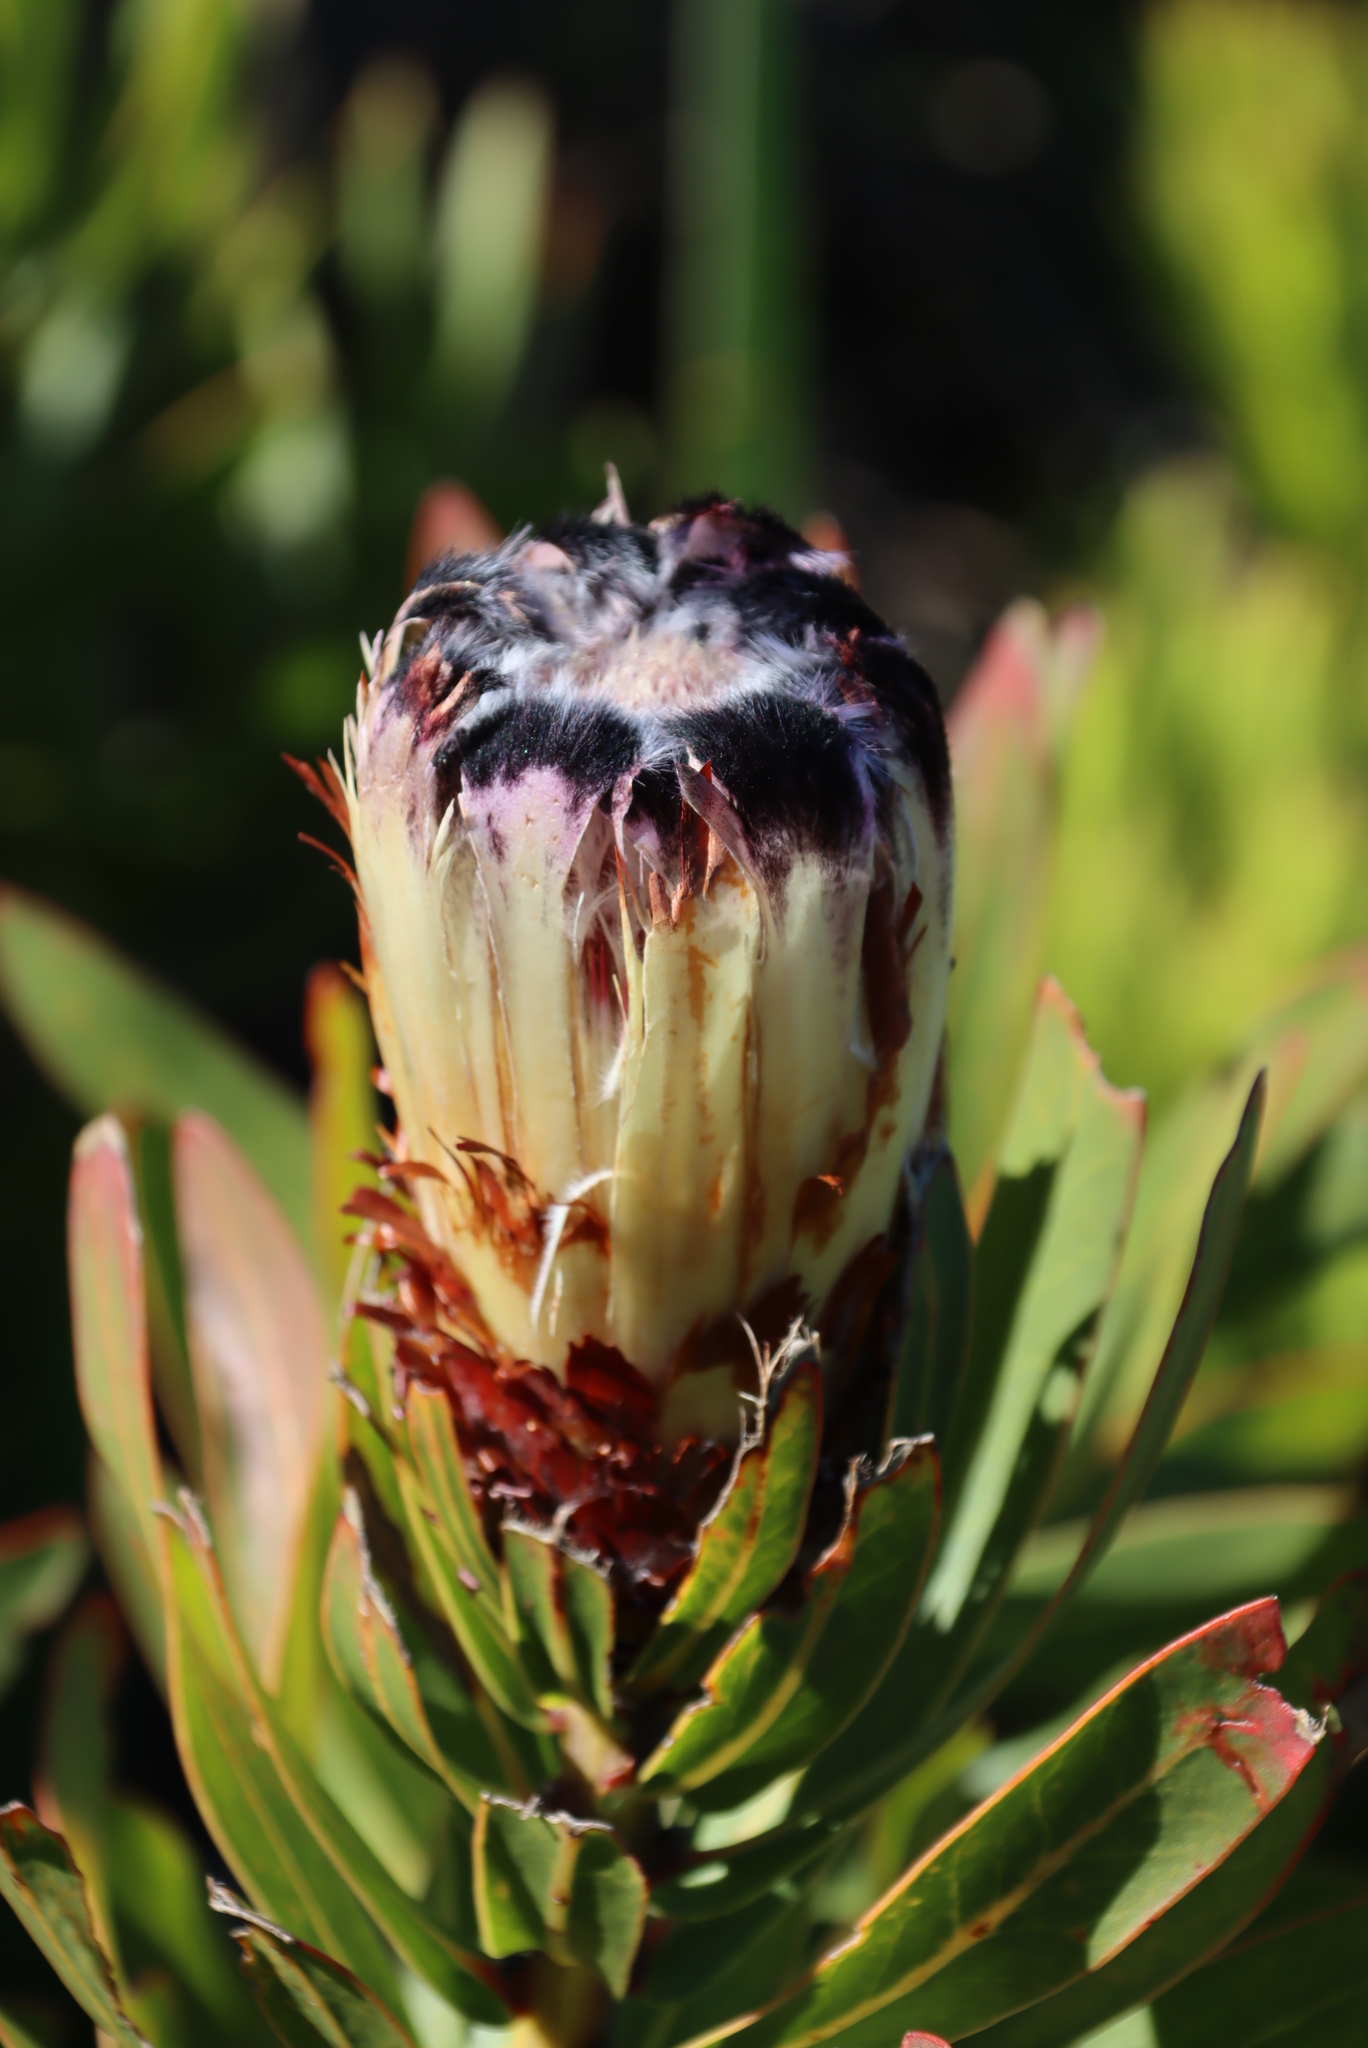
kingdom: Plantae
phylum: Tracheophyta
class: Magnoliopsida
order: Proteales
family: Proteaceae
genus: Protea
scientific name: Protea lepidocarpodendron
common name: Black-bearded protea
